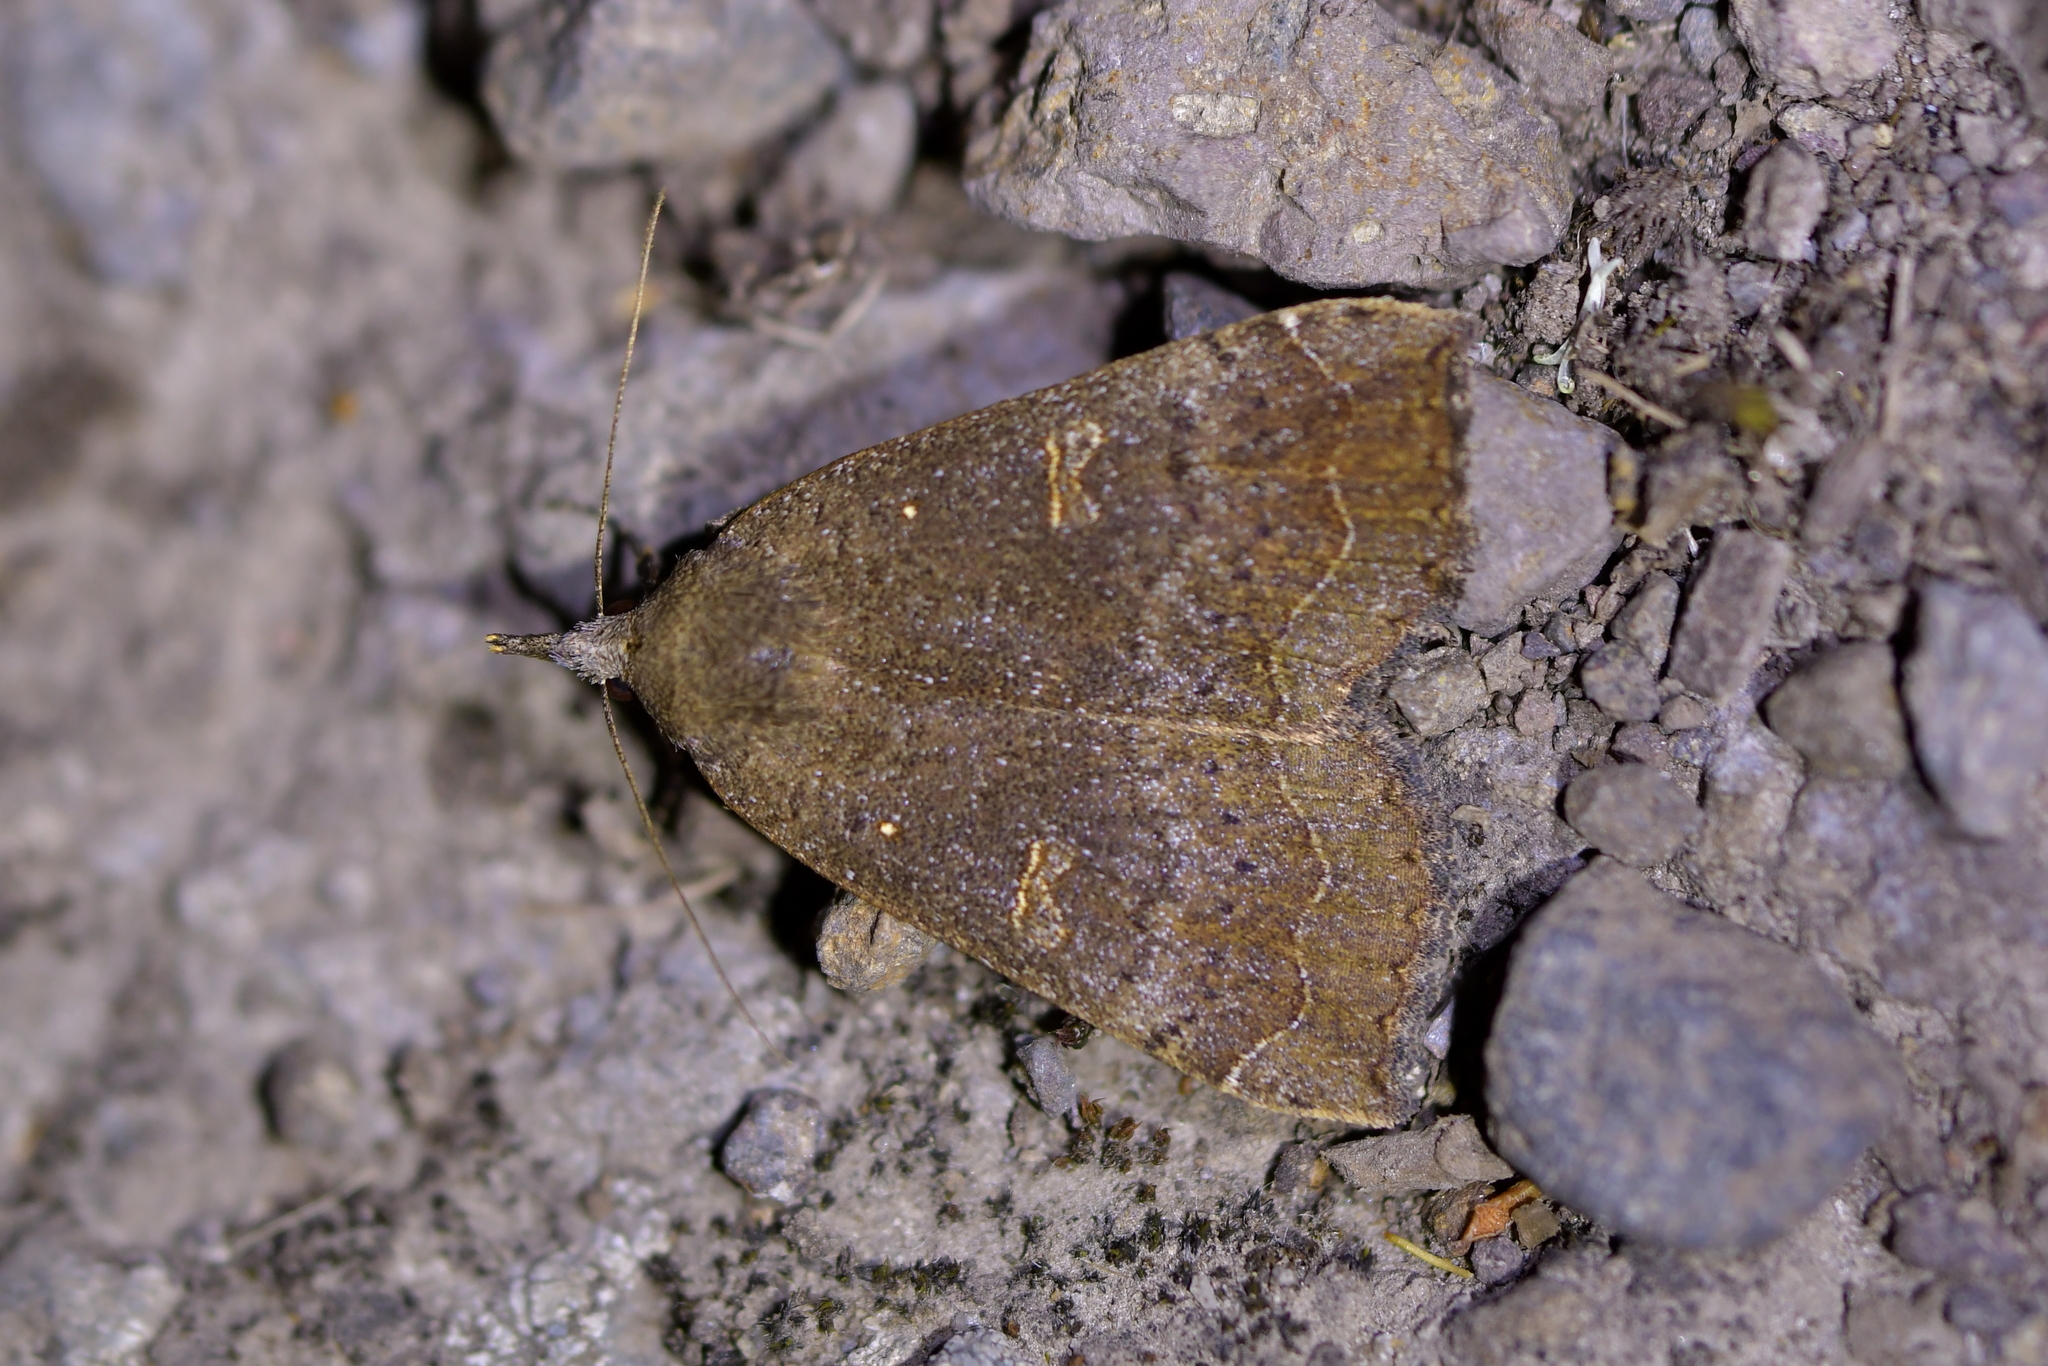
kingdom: Animalia
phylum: Arthropoda
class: Insecta
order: Lepidoptera
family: Erebidae
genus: Rhapsa
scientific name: Rhapsa scotosialis
